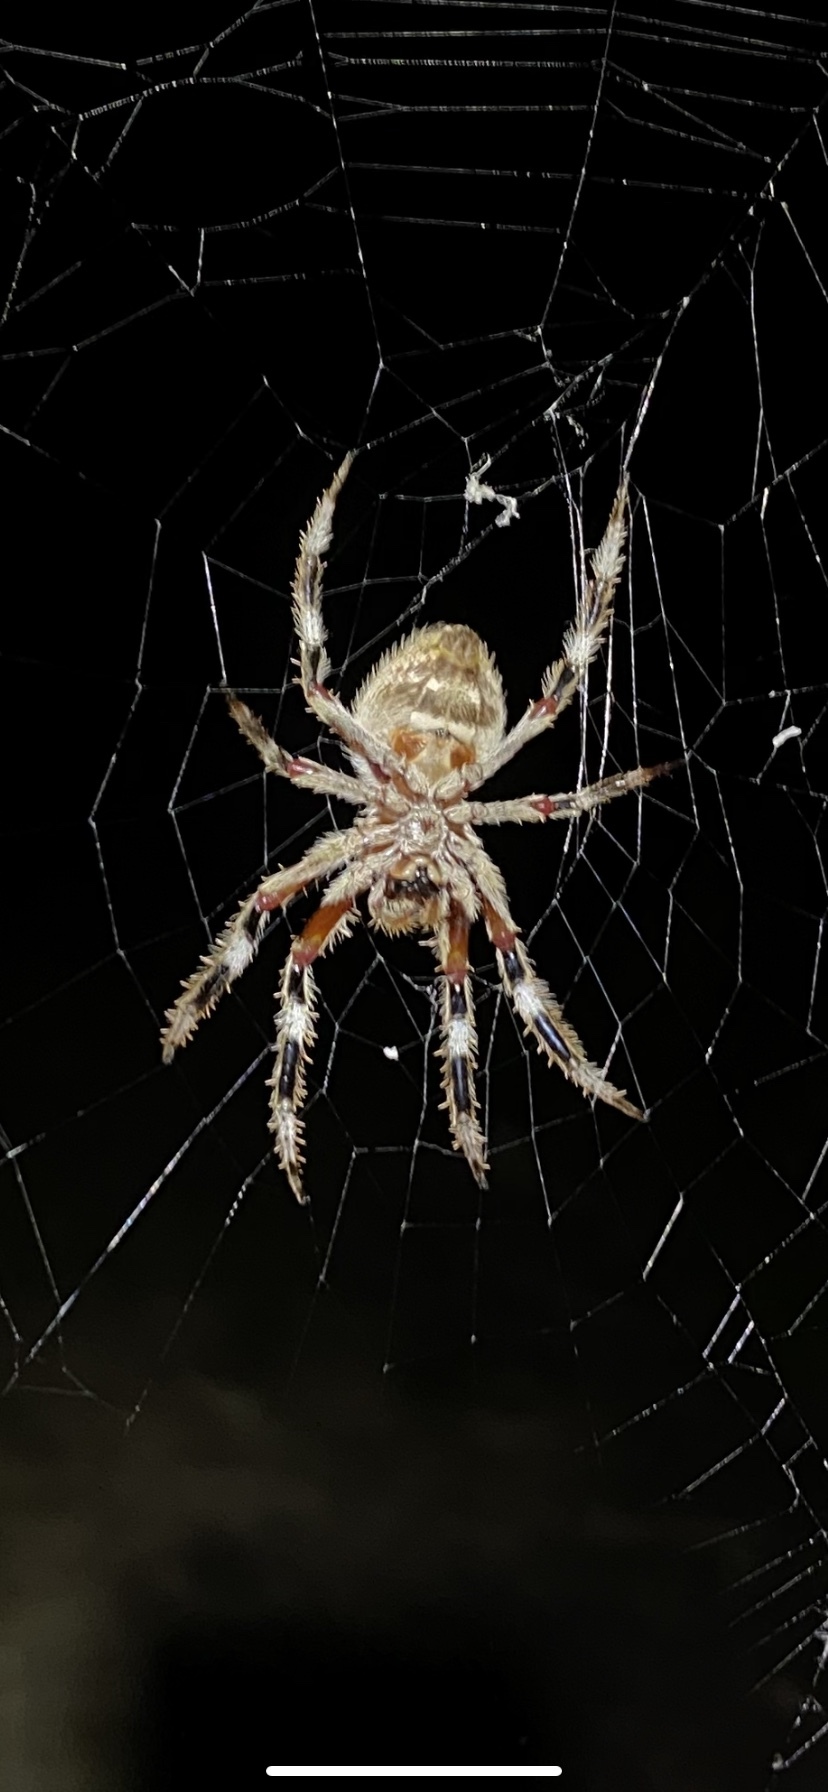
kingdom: Animalia
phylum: Arthropoda
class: Arachnida
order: Araneae
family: Araneidae
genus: Hortophora
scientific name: Hortophora biapicata
